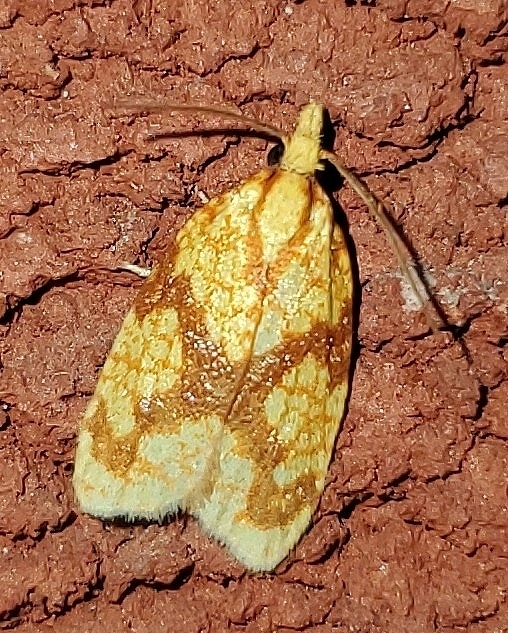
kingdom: Animalia
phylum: Arthropoda
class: Insecta
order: Lepidoptera
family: Tortricidae
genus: Sparganothis
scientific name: Sparganothis sulfureana
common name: Sparganothis fruitworm moth
